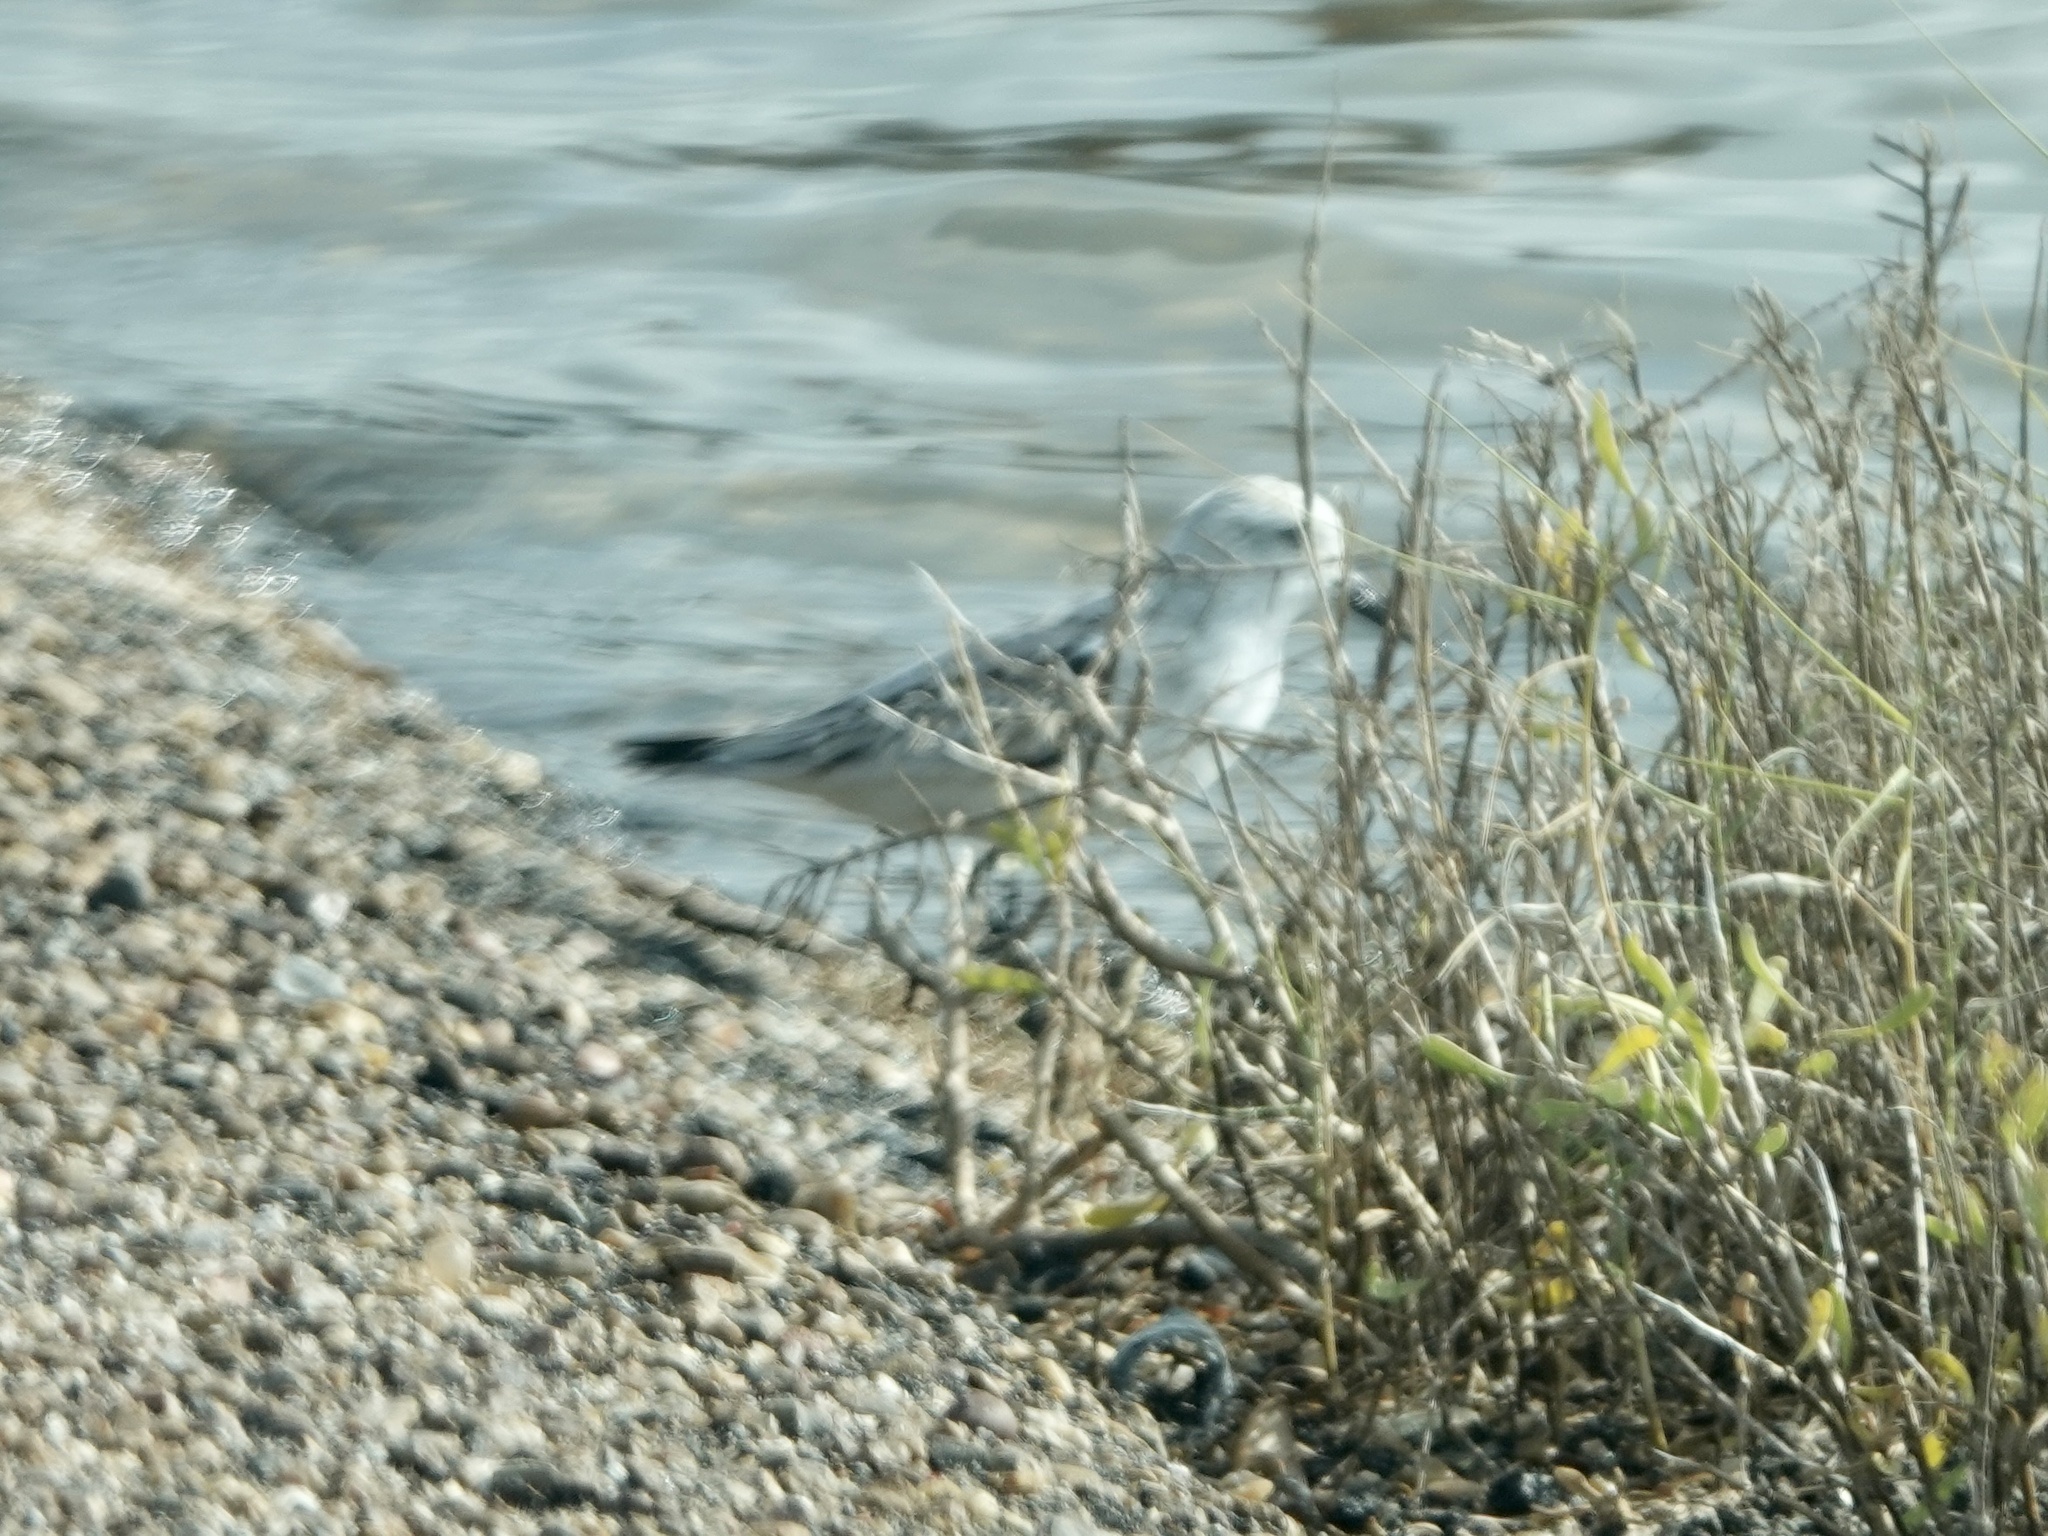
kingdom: Animalia
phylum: Chordata
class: Aves
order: Charadriiformes
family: Scolopacidae
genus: Calidris
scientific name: Calidris alba
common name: Sanderling
